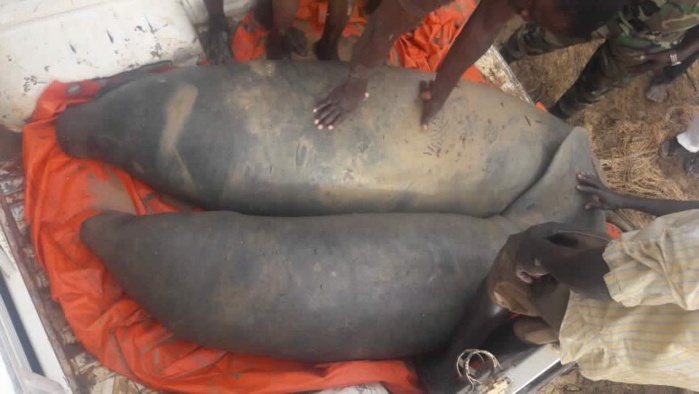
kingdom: Animalia
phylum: Chordata
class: Mammalia
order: Sirenia
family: Trichechidae
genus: Trichechus
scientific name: Trichechus senegalensis
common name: West african manatee
